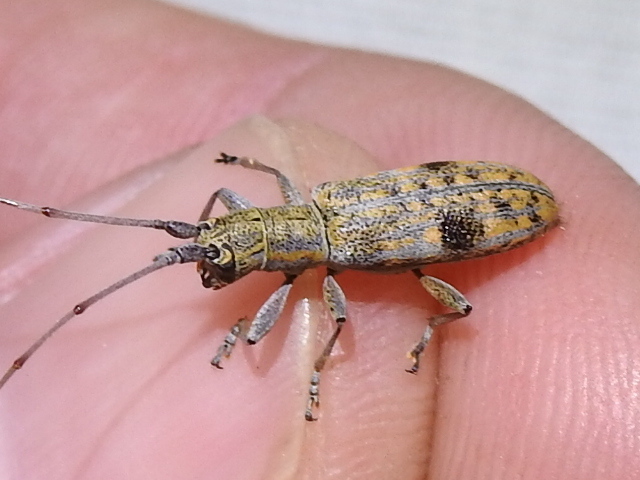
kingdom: Animalia
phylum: Arthropoda
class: Insecta
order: Coleoptera
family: Cerambycidae
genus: Dorcaschema
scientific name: Dorcaschema alternatum
